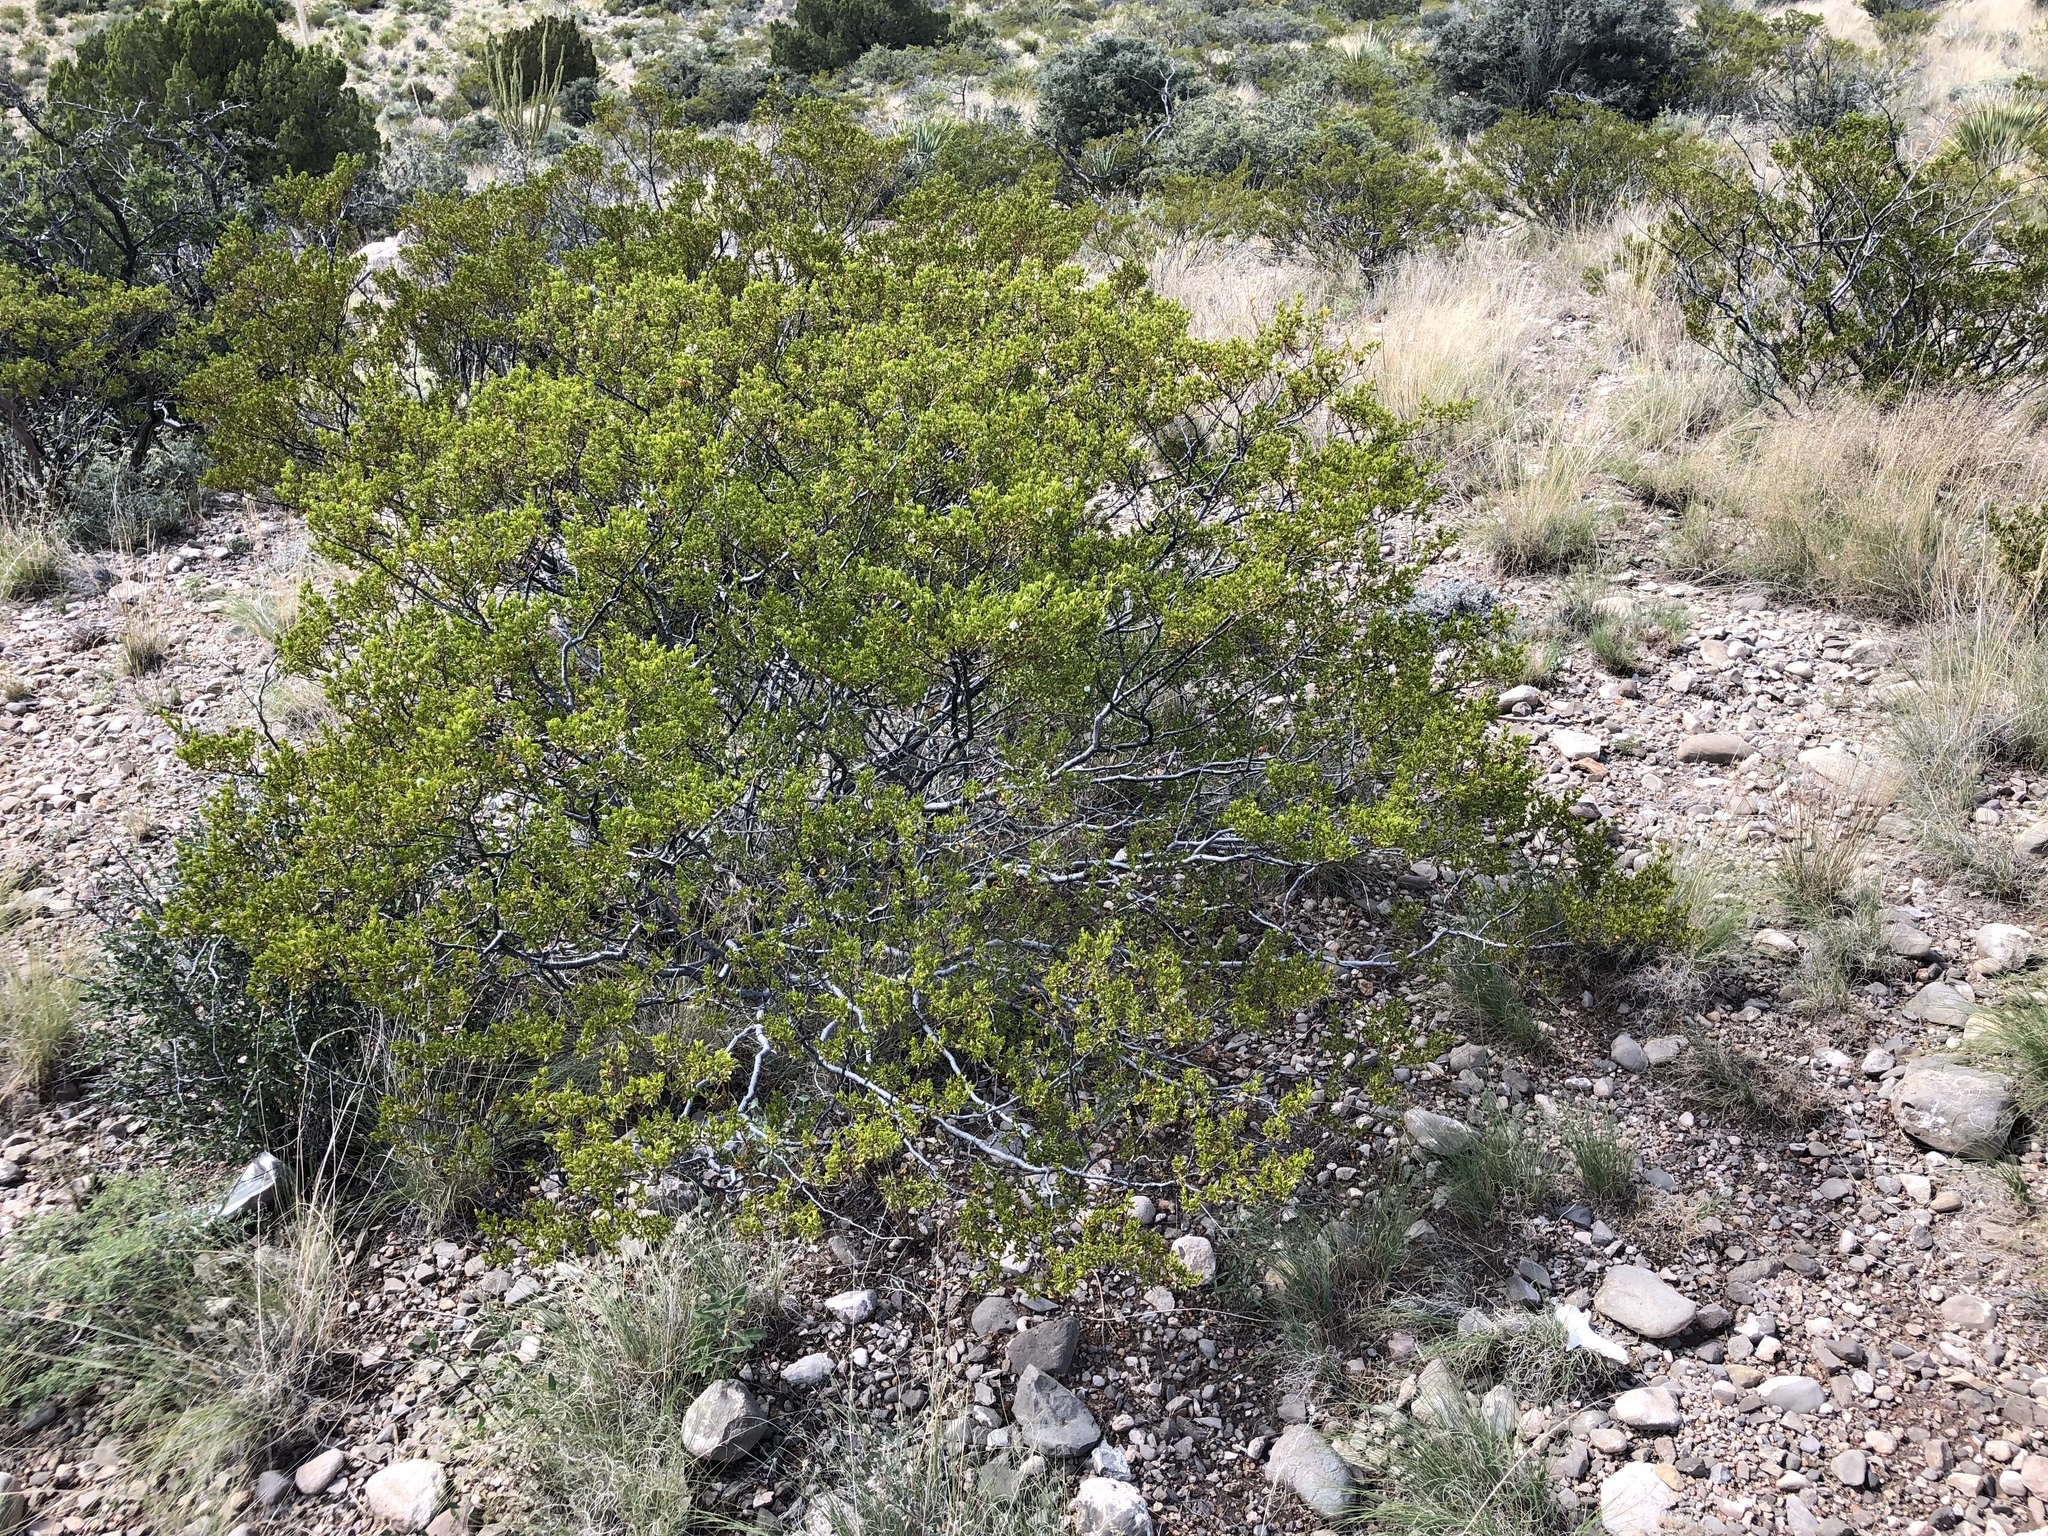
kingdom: Plantae
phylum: Tracheophyta
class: Magnoliopsida
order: Zygophyllales
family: Zygophyllaceae
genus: Larrea
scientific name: Larrea tridentata
